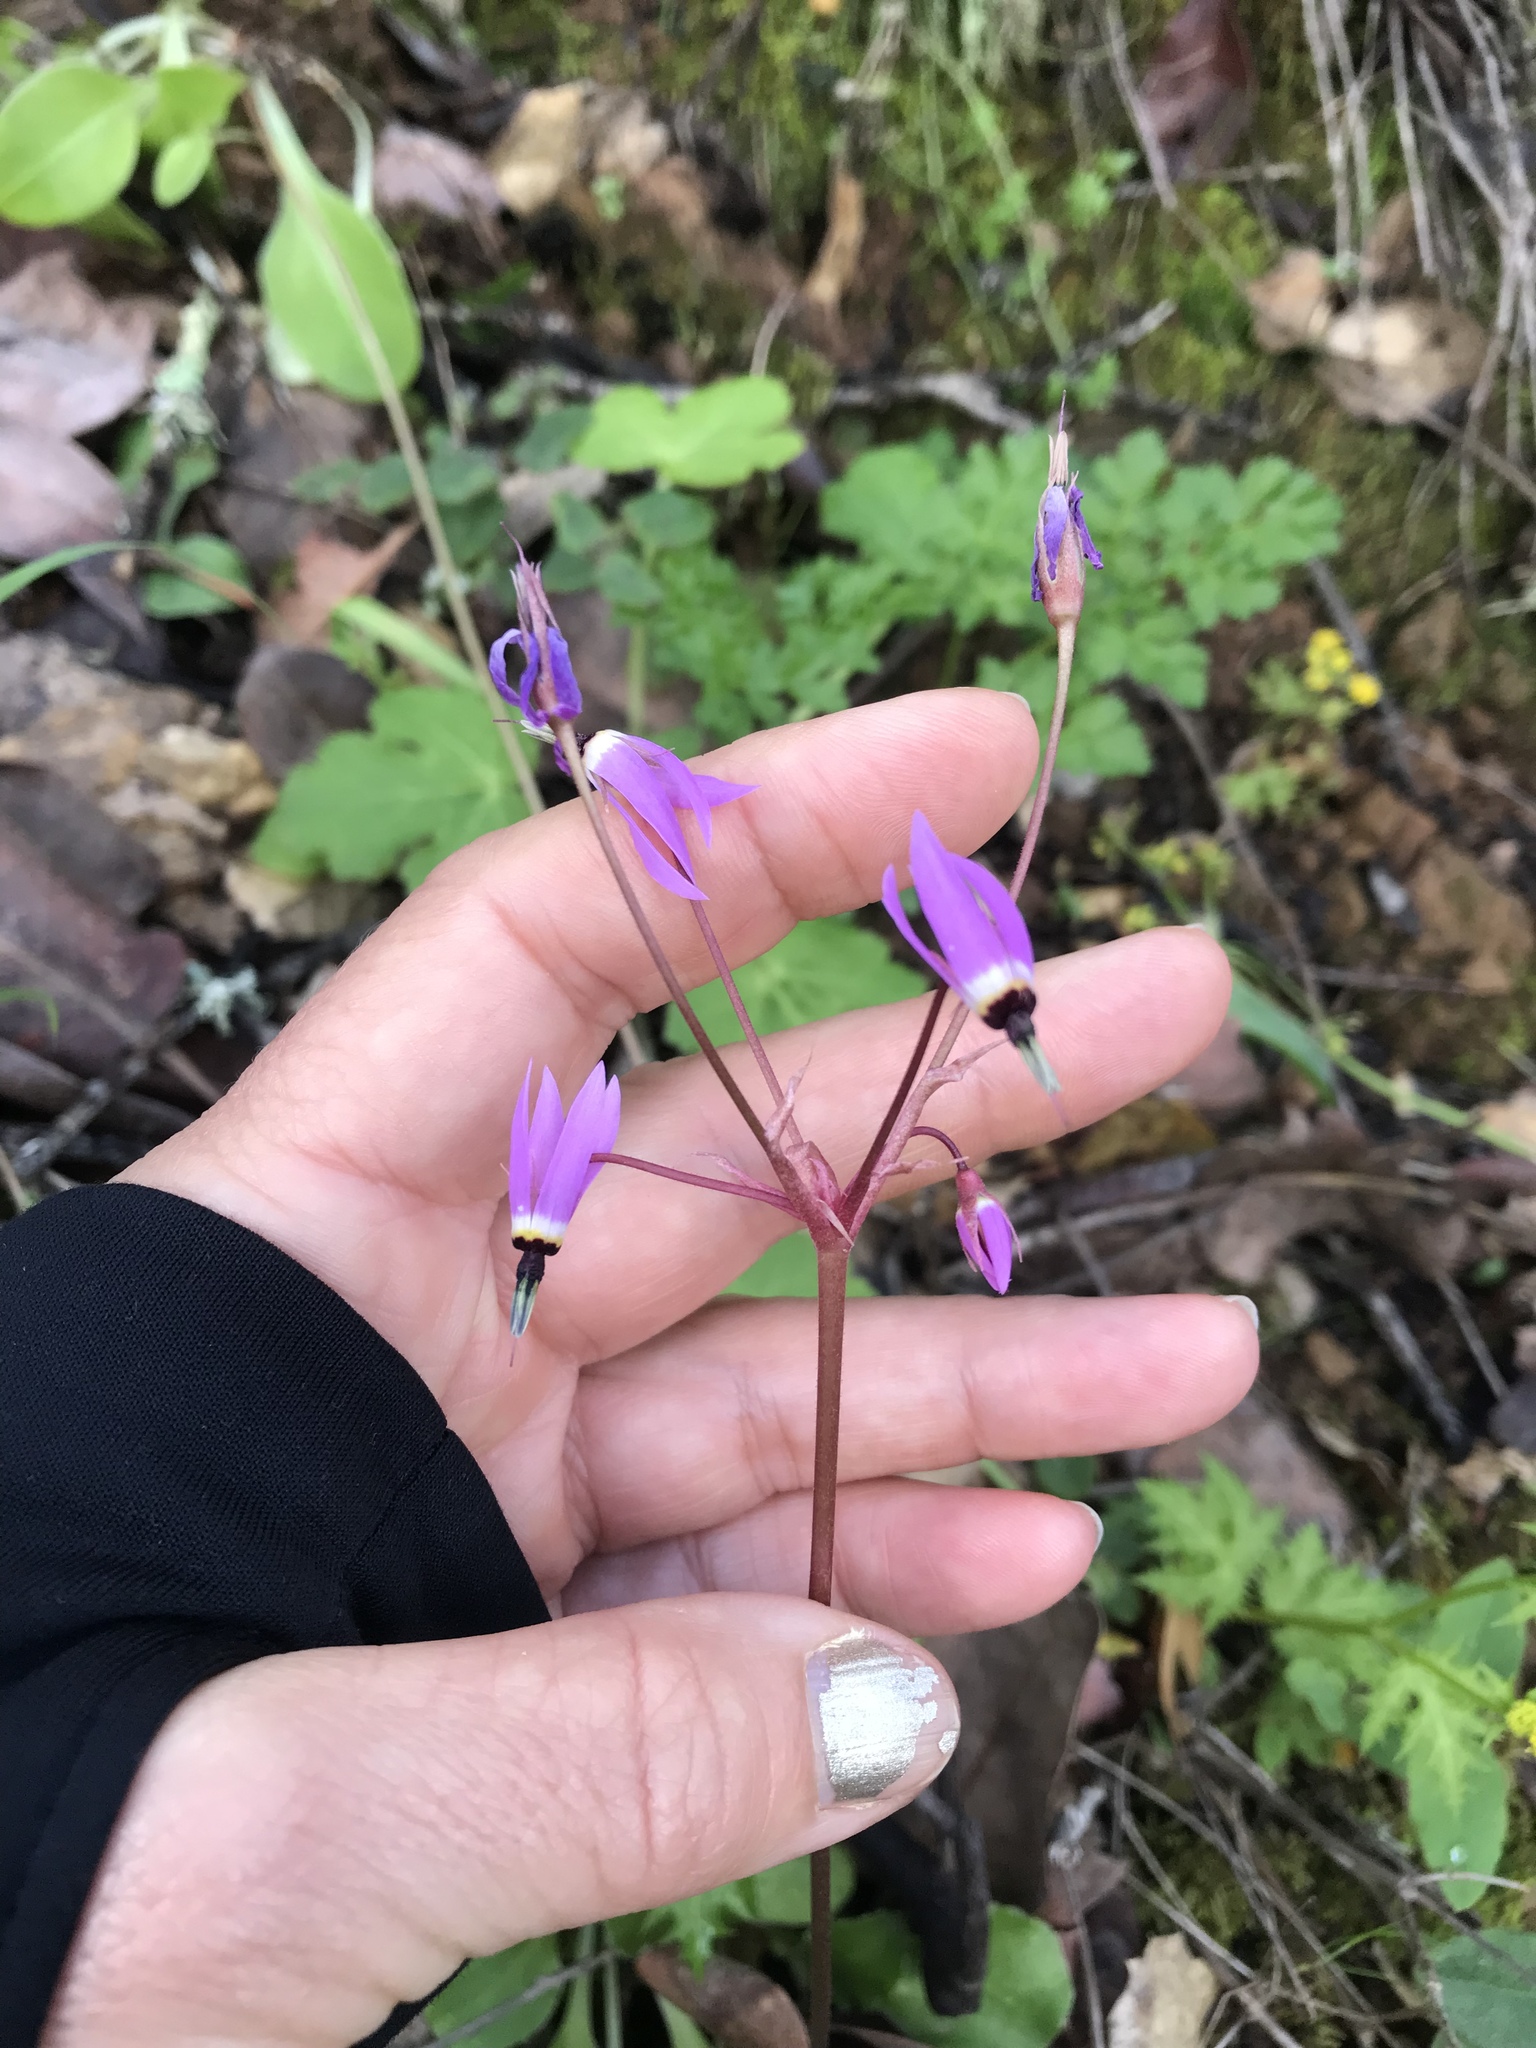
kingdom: Plantae
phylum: Tracheophyta
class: Magnoliopsida
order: Ericales
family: Primulaceae
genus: Dodecatheon
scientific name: Dodecatheon hendersonii
